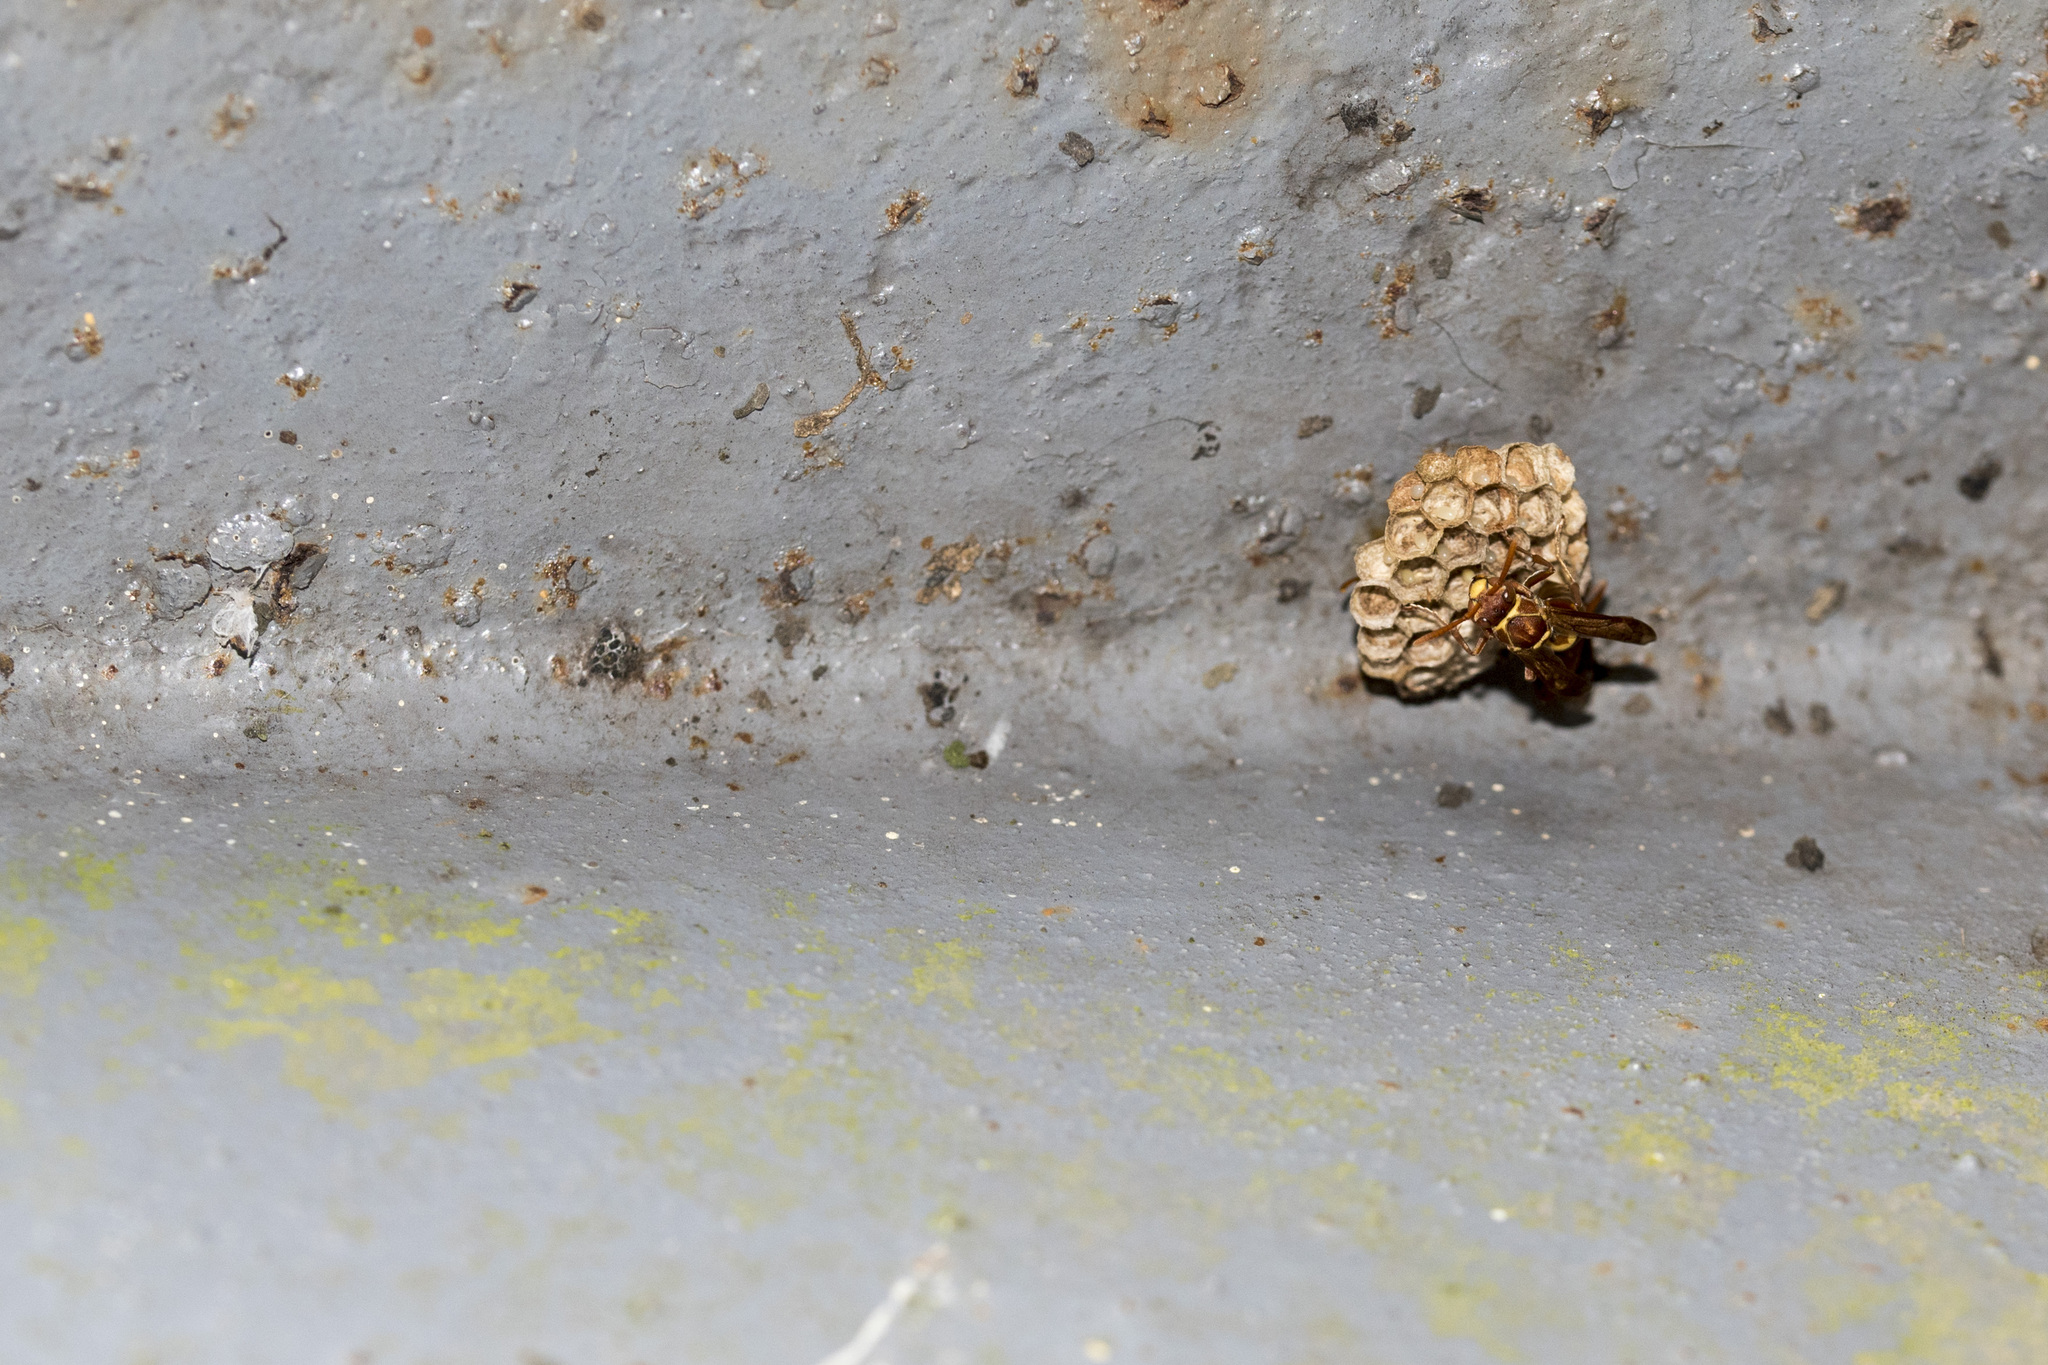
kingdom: Animalia
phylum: Arthropoda
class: Insecta
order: Hymenoptera
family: Eumenidae
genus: Polistes
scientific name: Polistes shirakii
